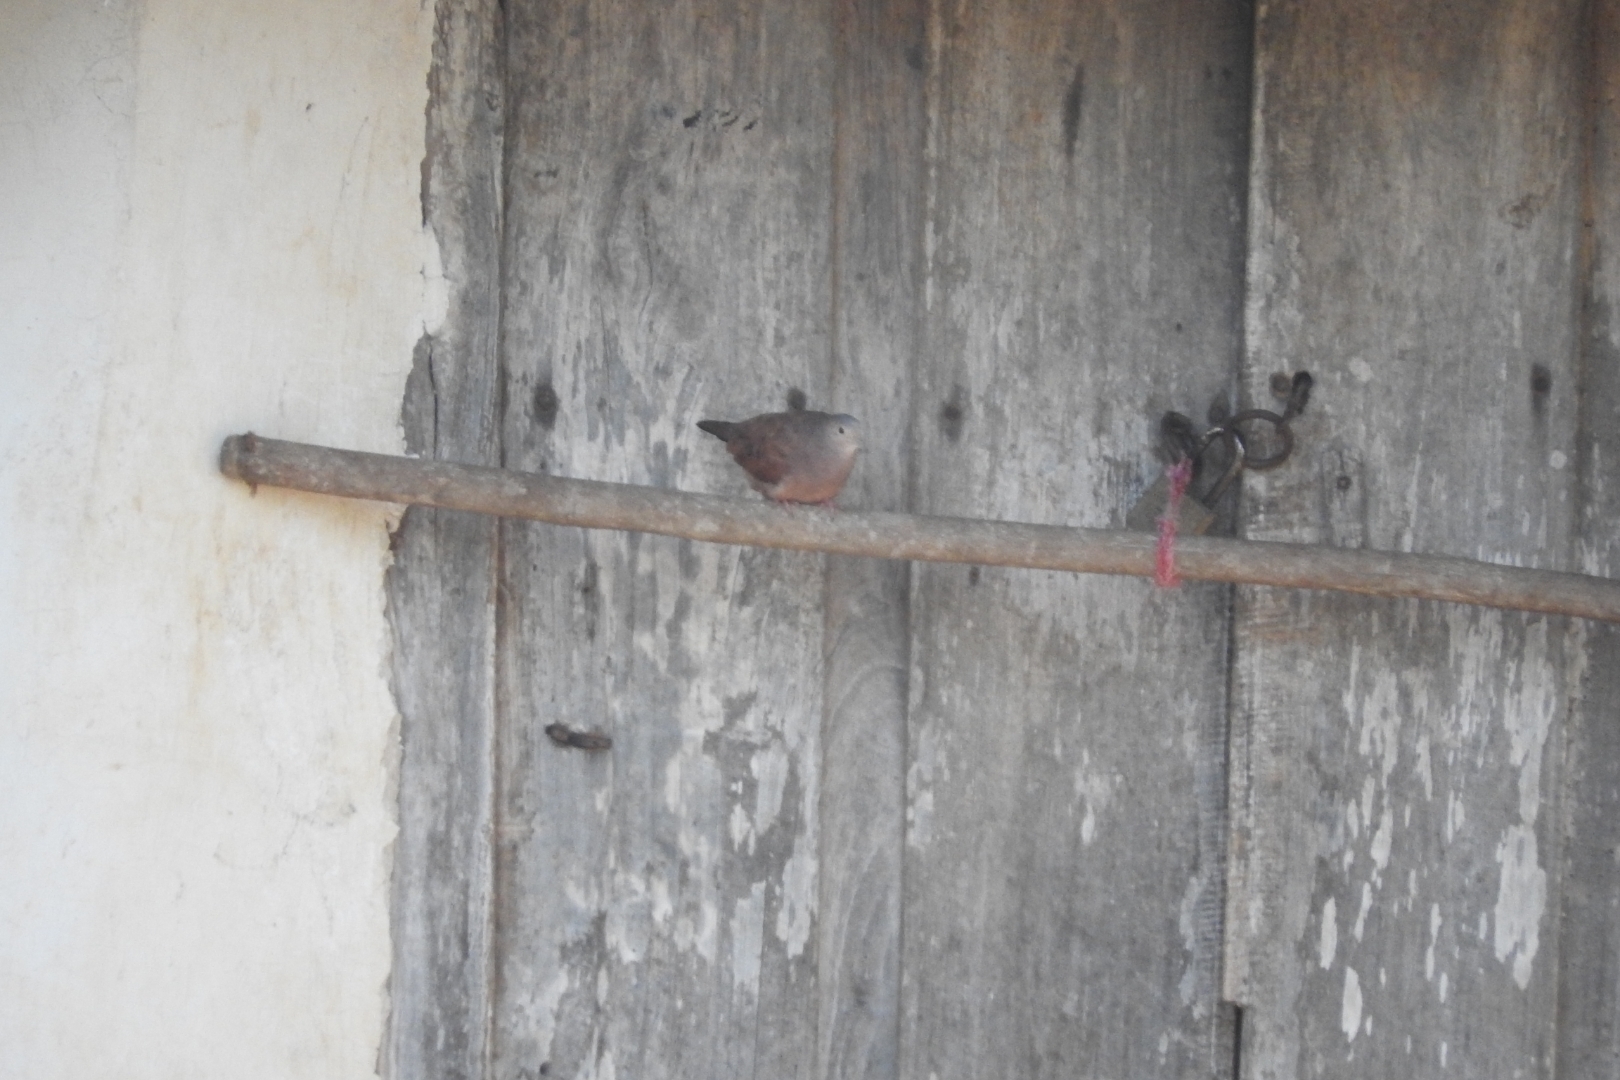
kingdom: Animalia
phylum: Chordata
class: Aves
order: Columbiformes
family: Columbidae
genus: Columbina
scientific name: Columbina talpacoti
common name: Ruddy ground dove
